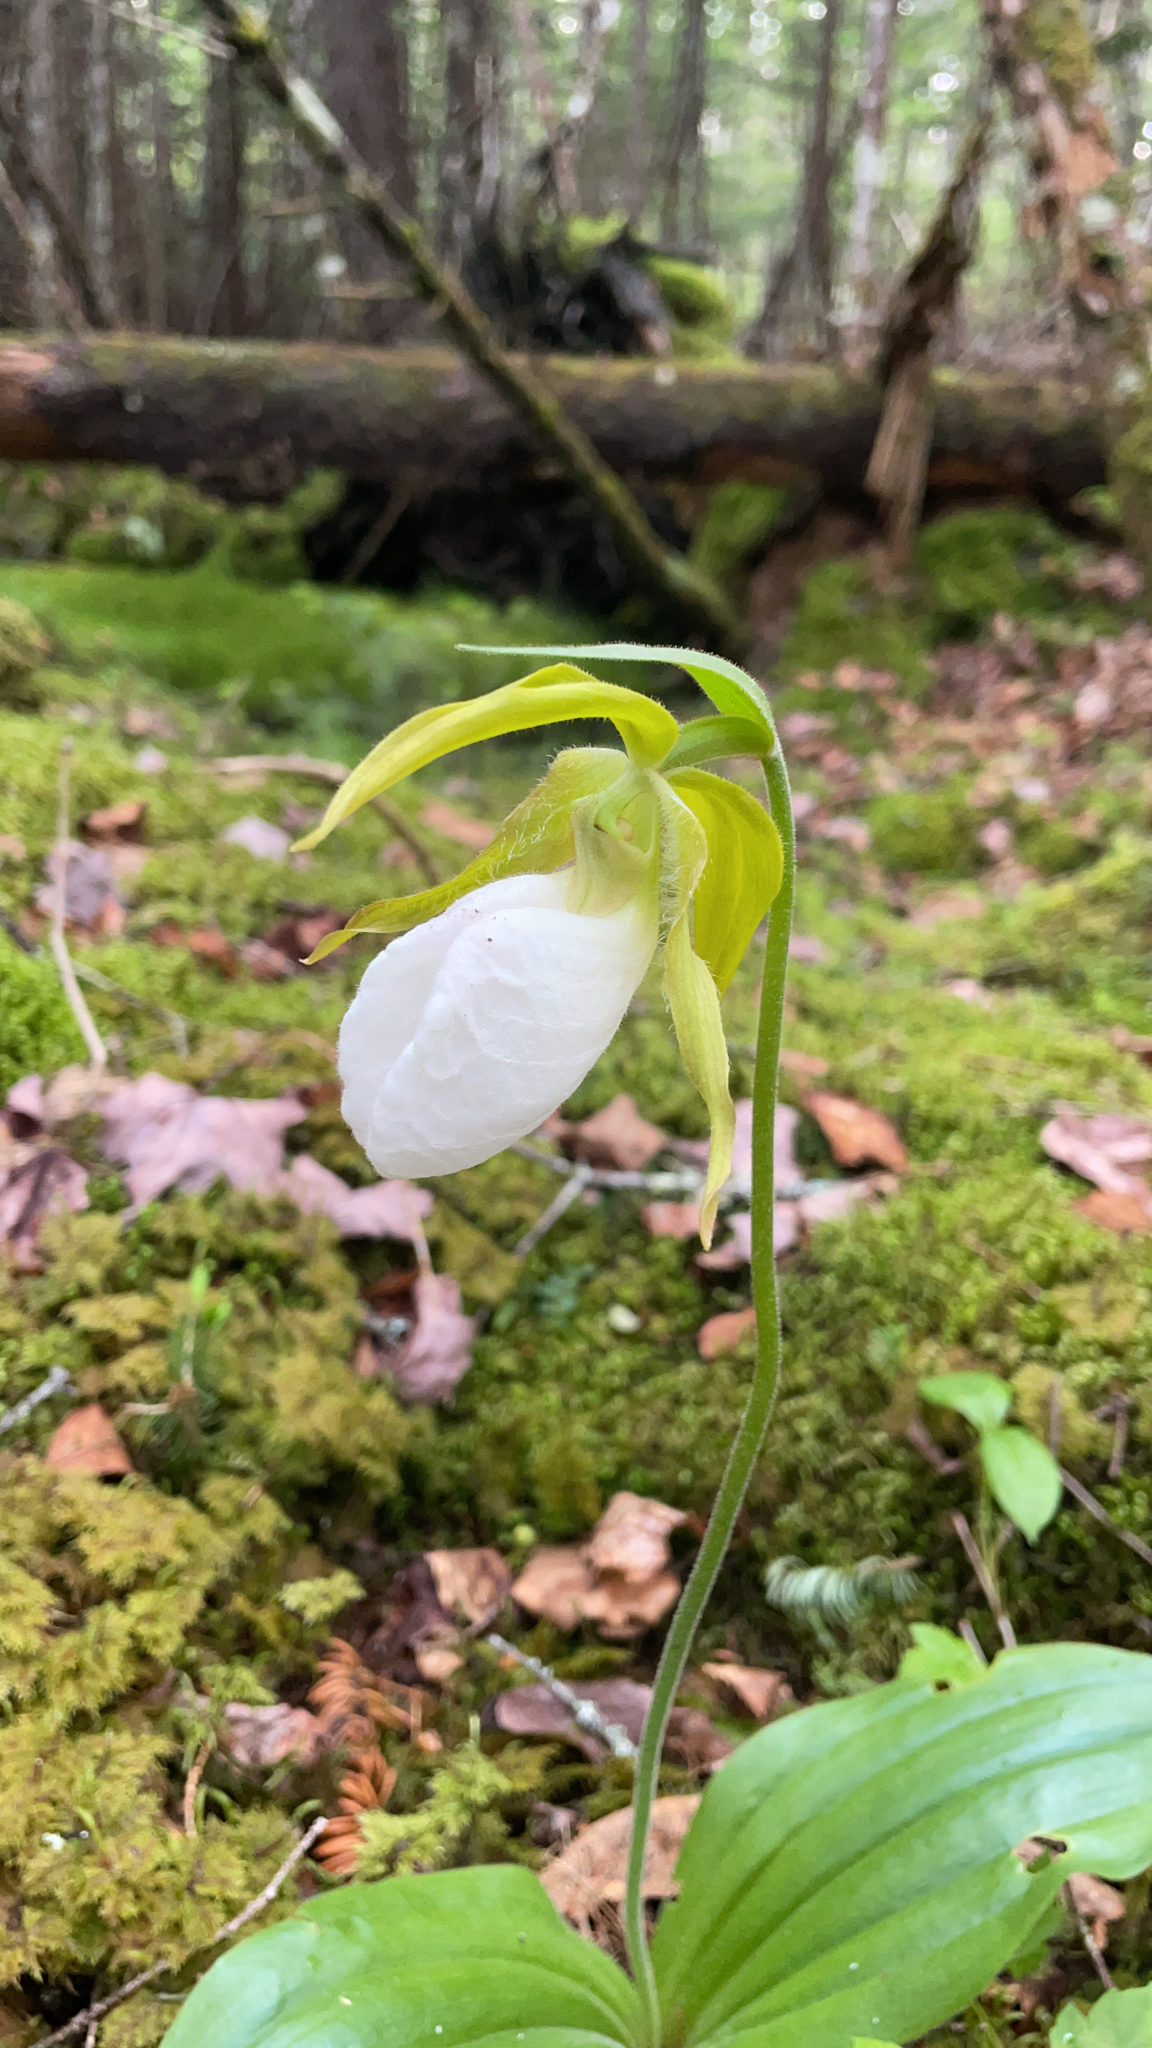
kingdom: Plantae
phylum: Tracheophyta
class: Liliopsida
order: Asparagales
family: Orchidaceae
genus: Cypripedium
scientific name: Cypripedium acaule
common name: Pink lady's-slipper
